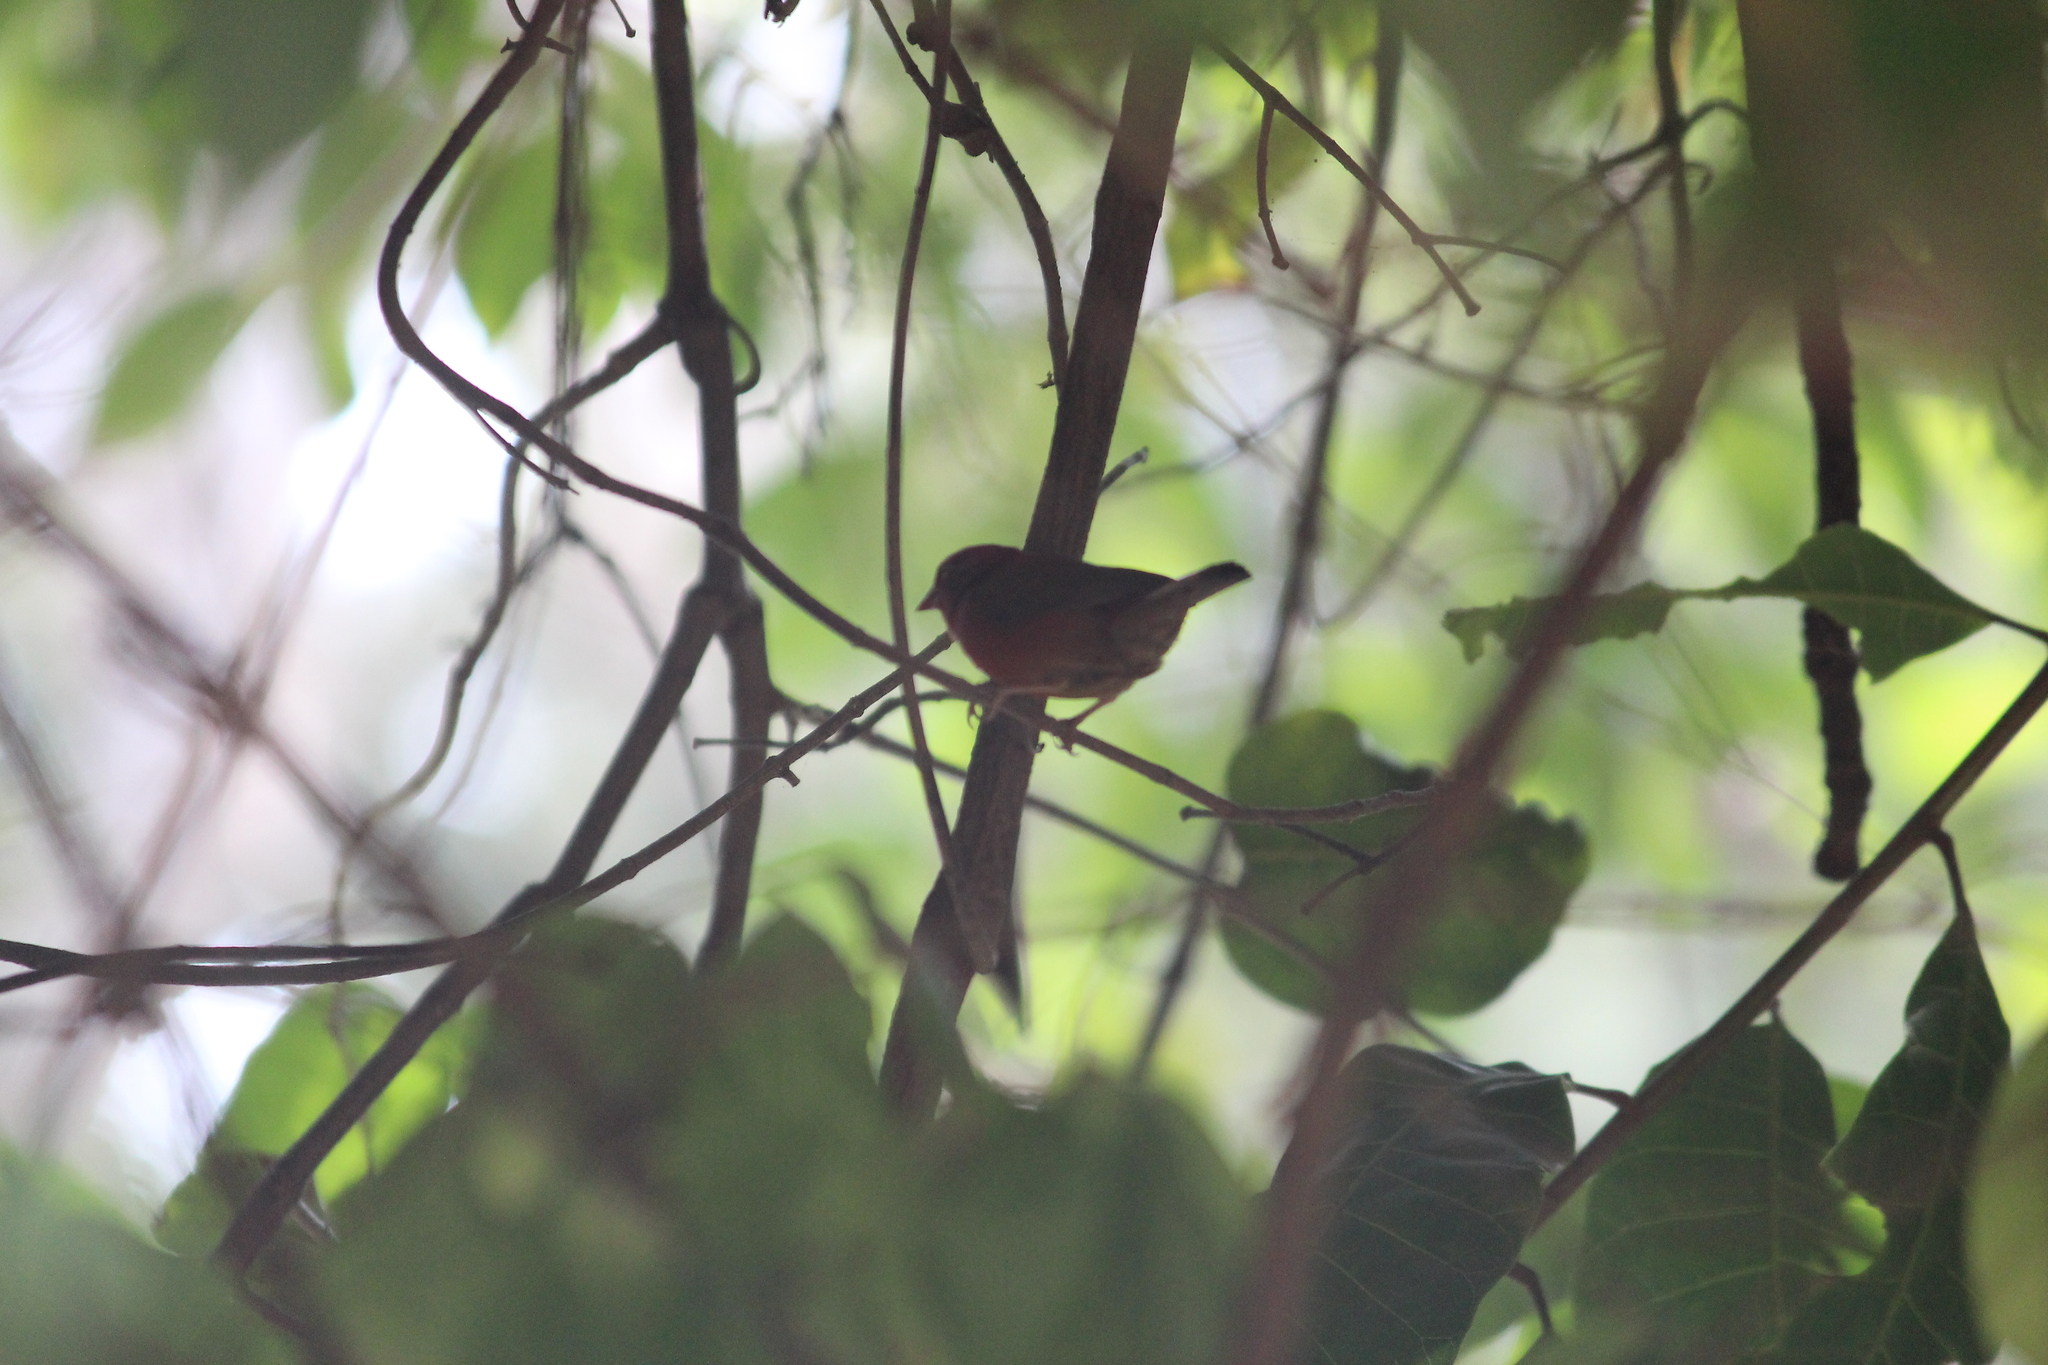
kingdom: Animalia
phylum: Chordata
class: Aves
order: Passeriformes
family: Estrildidae
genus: Lagonosticta
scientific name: Lagonosticta senegala
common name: Red-billed firefinch
